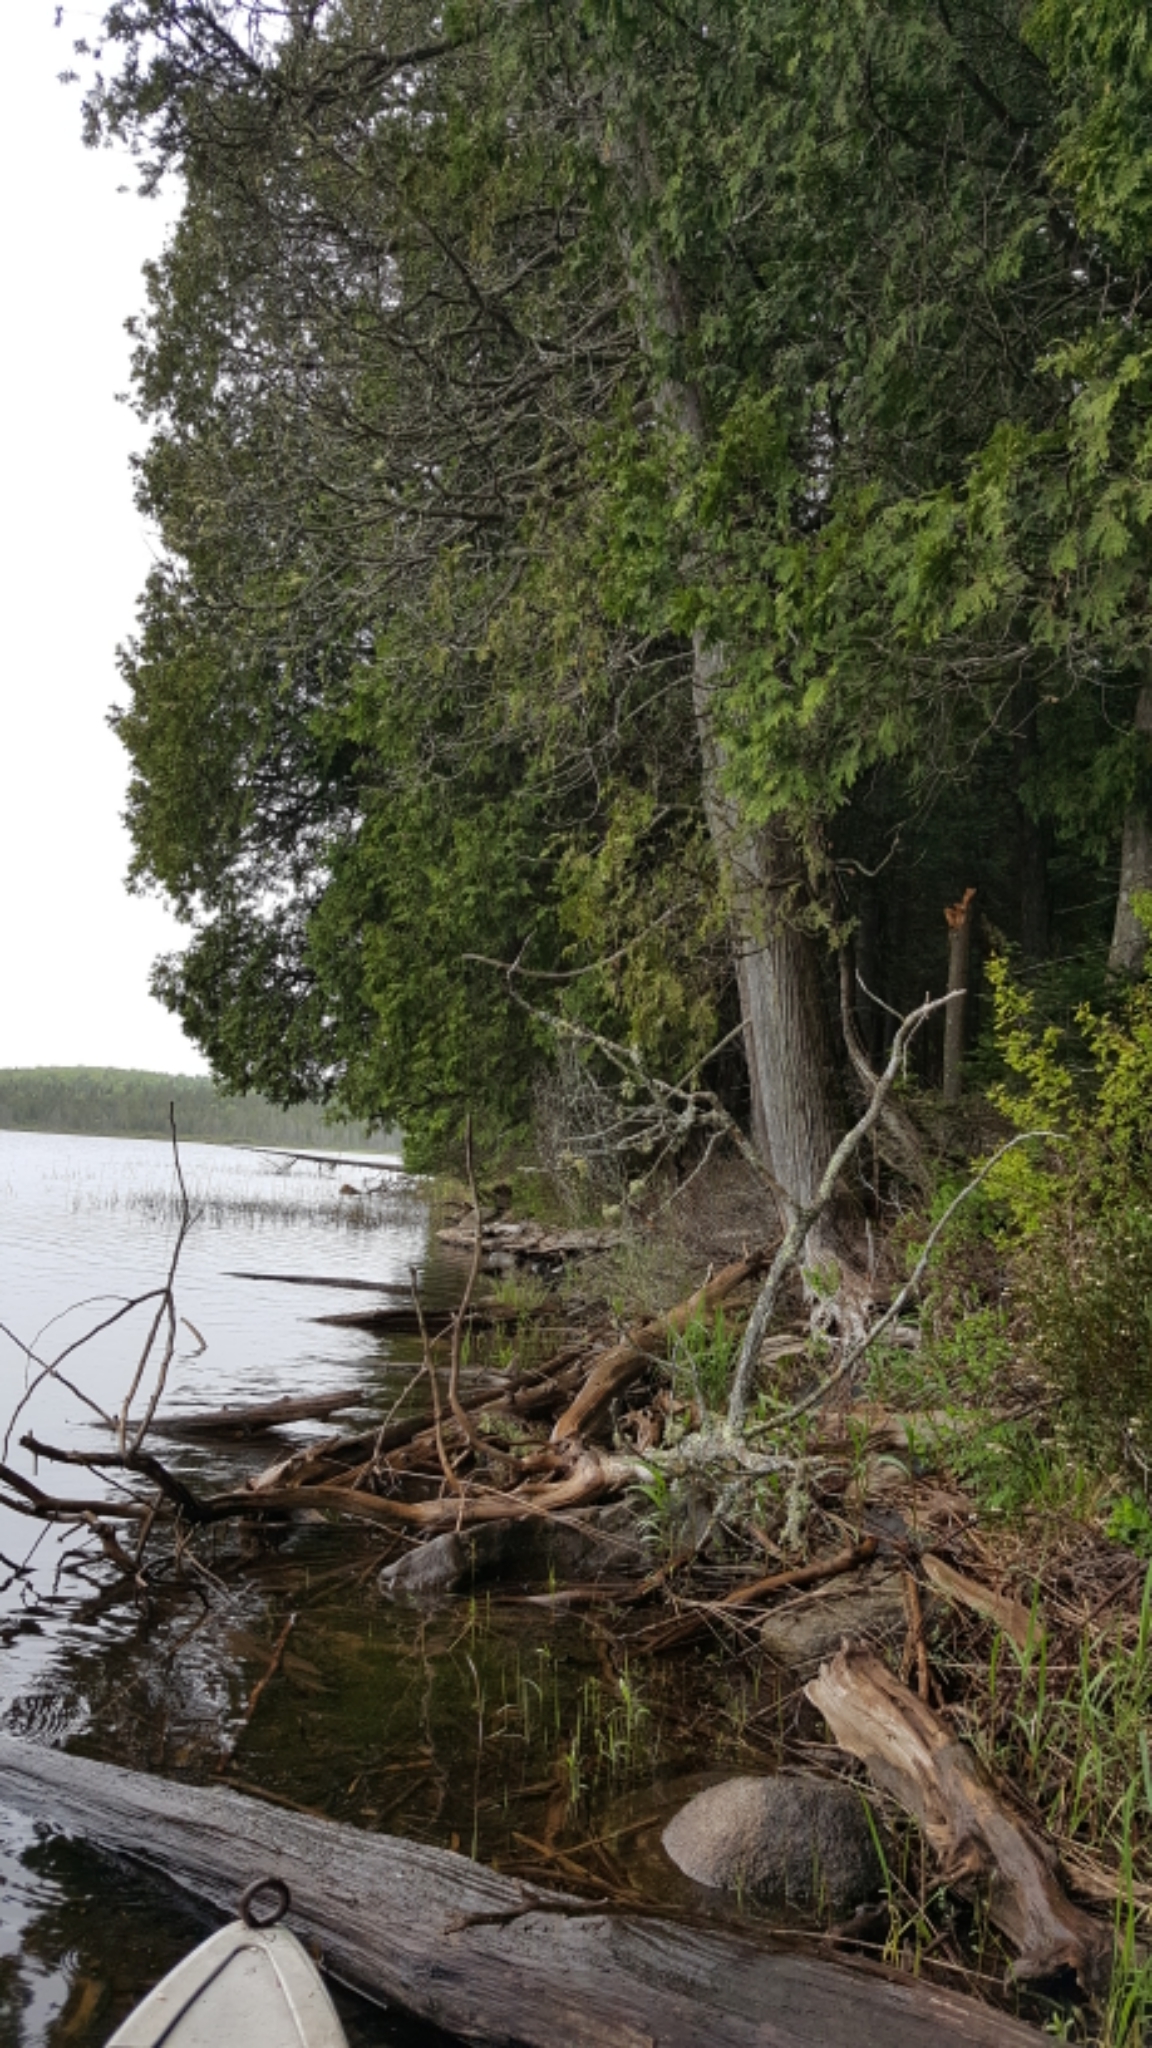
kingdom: Plantae
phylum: Tracheophyta
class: Pinopsida
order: Pinales
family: Cupressaceae
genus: Thuja
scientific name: Thuja occidentalis
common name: Northern white-cedar
